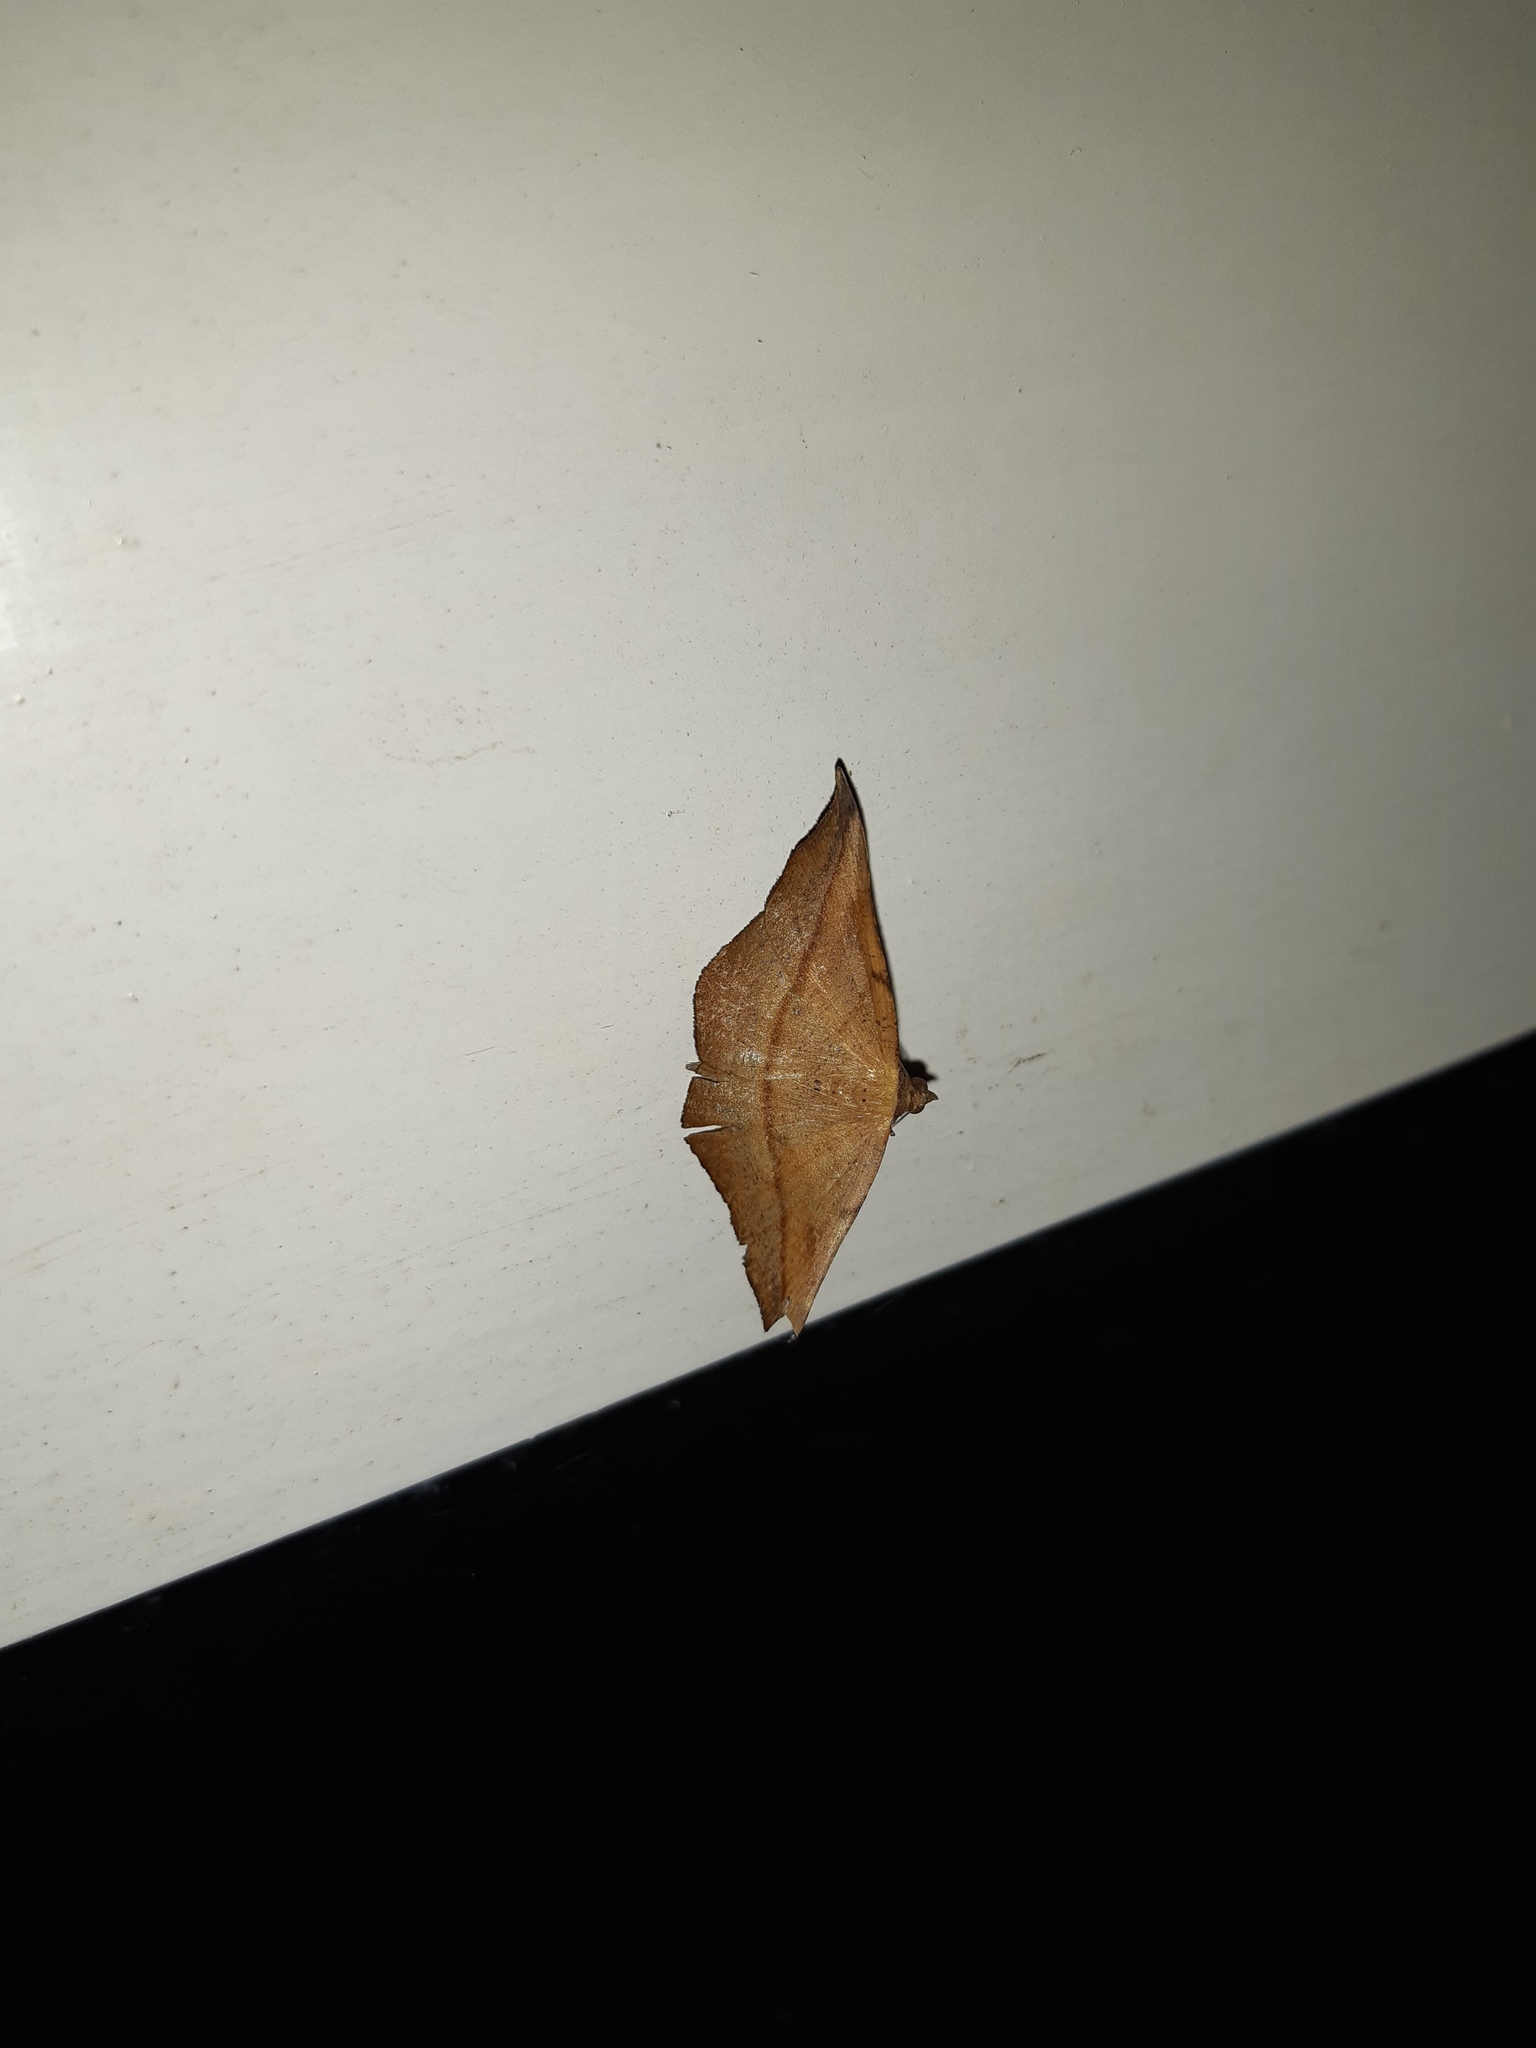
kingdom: Animalia
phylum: Arthropoda
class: Insecta
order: Lepidoptera
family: Geometridae
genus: Sarisa
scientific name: Sarisa muriferata
